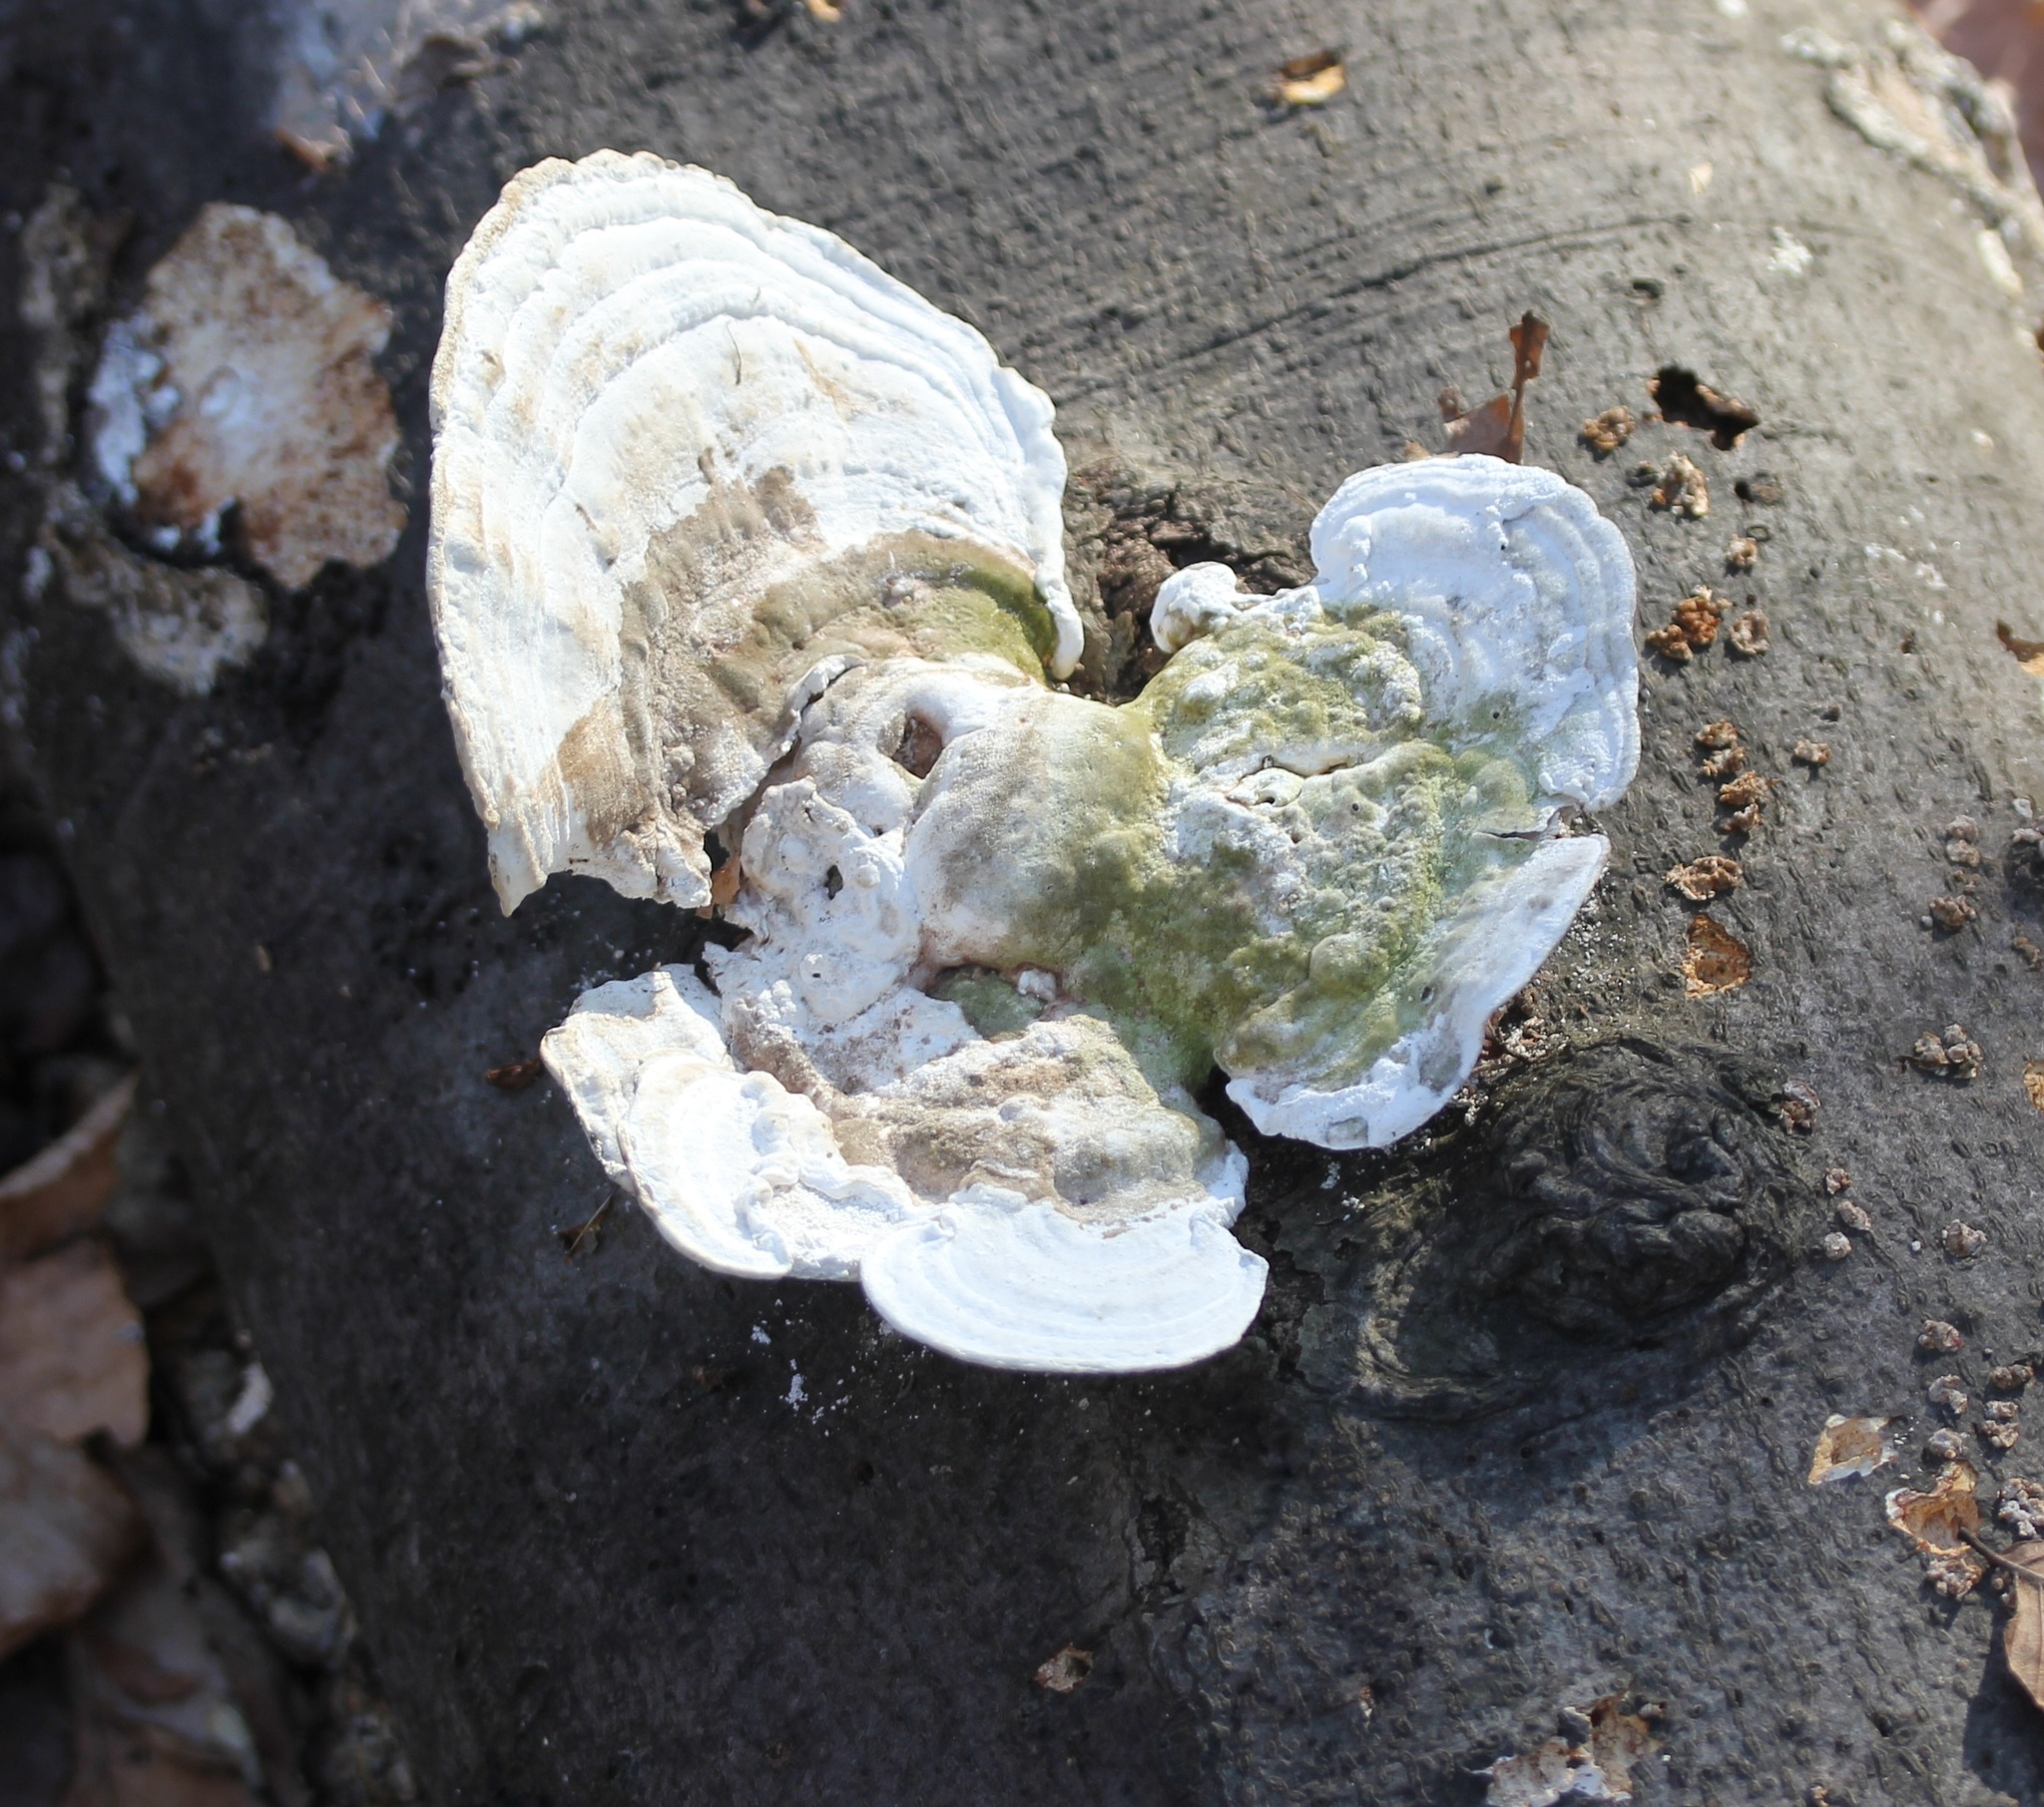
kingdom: Fungi
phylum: Basidiomycota
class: Agaricomycetes
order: Polyporales
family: Polyporaceae
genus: Trametes
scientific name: Trametes gibbosa
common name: Lumpy bracket
